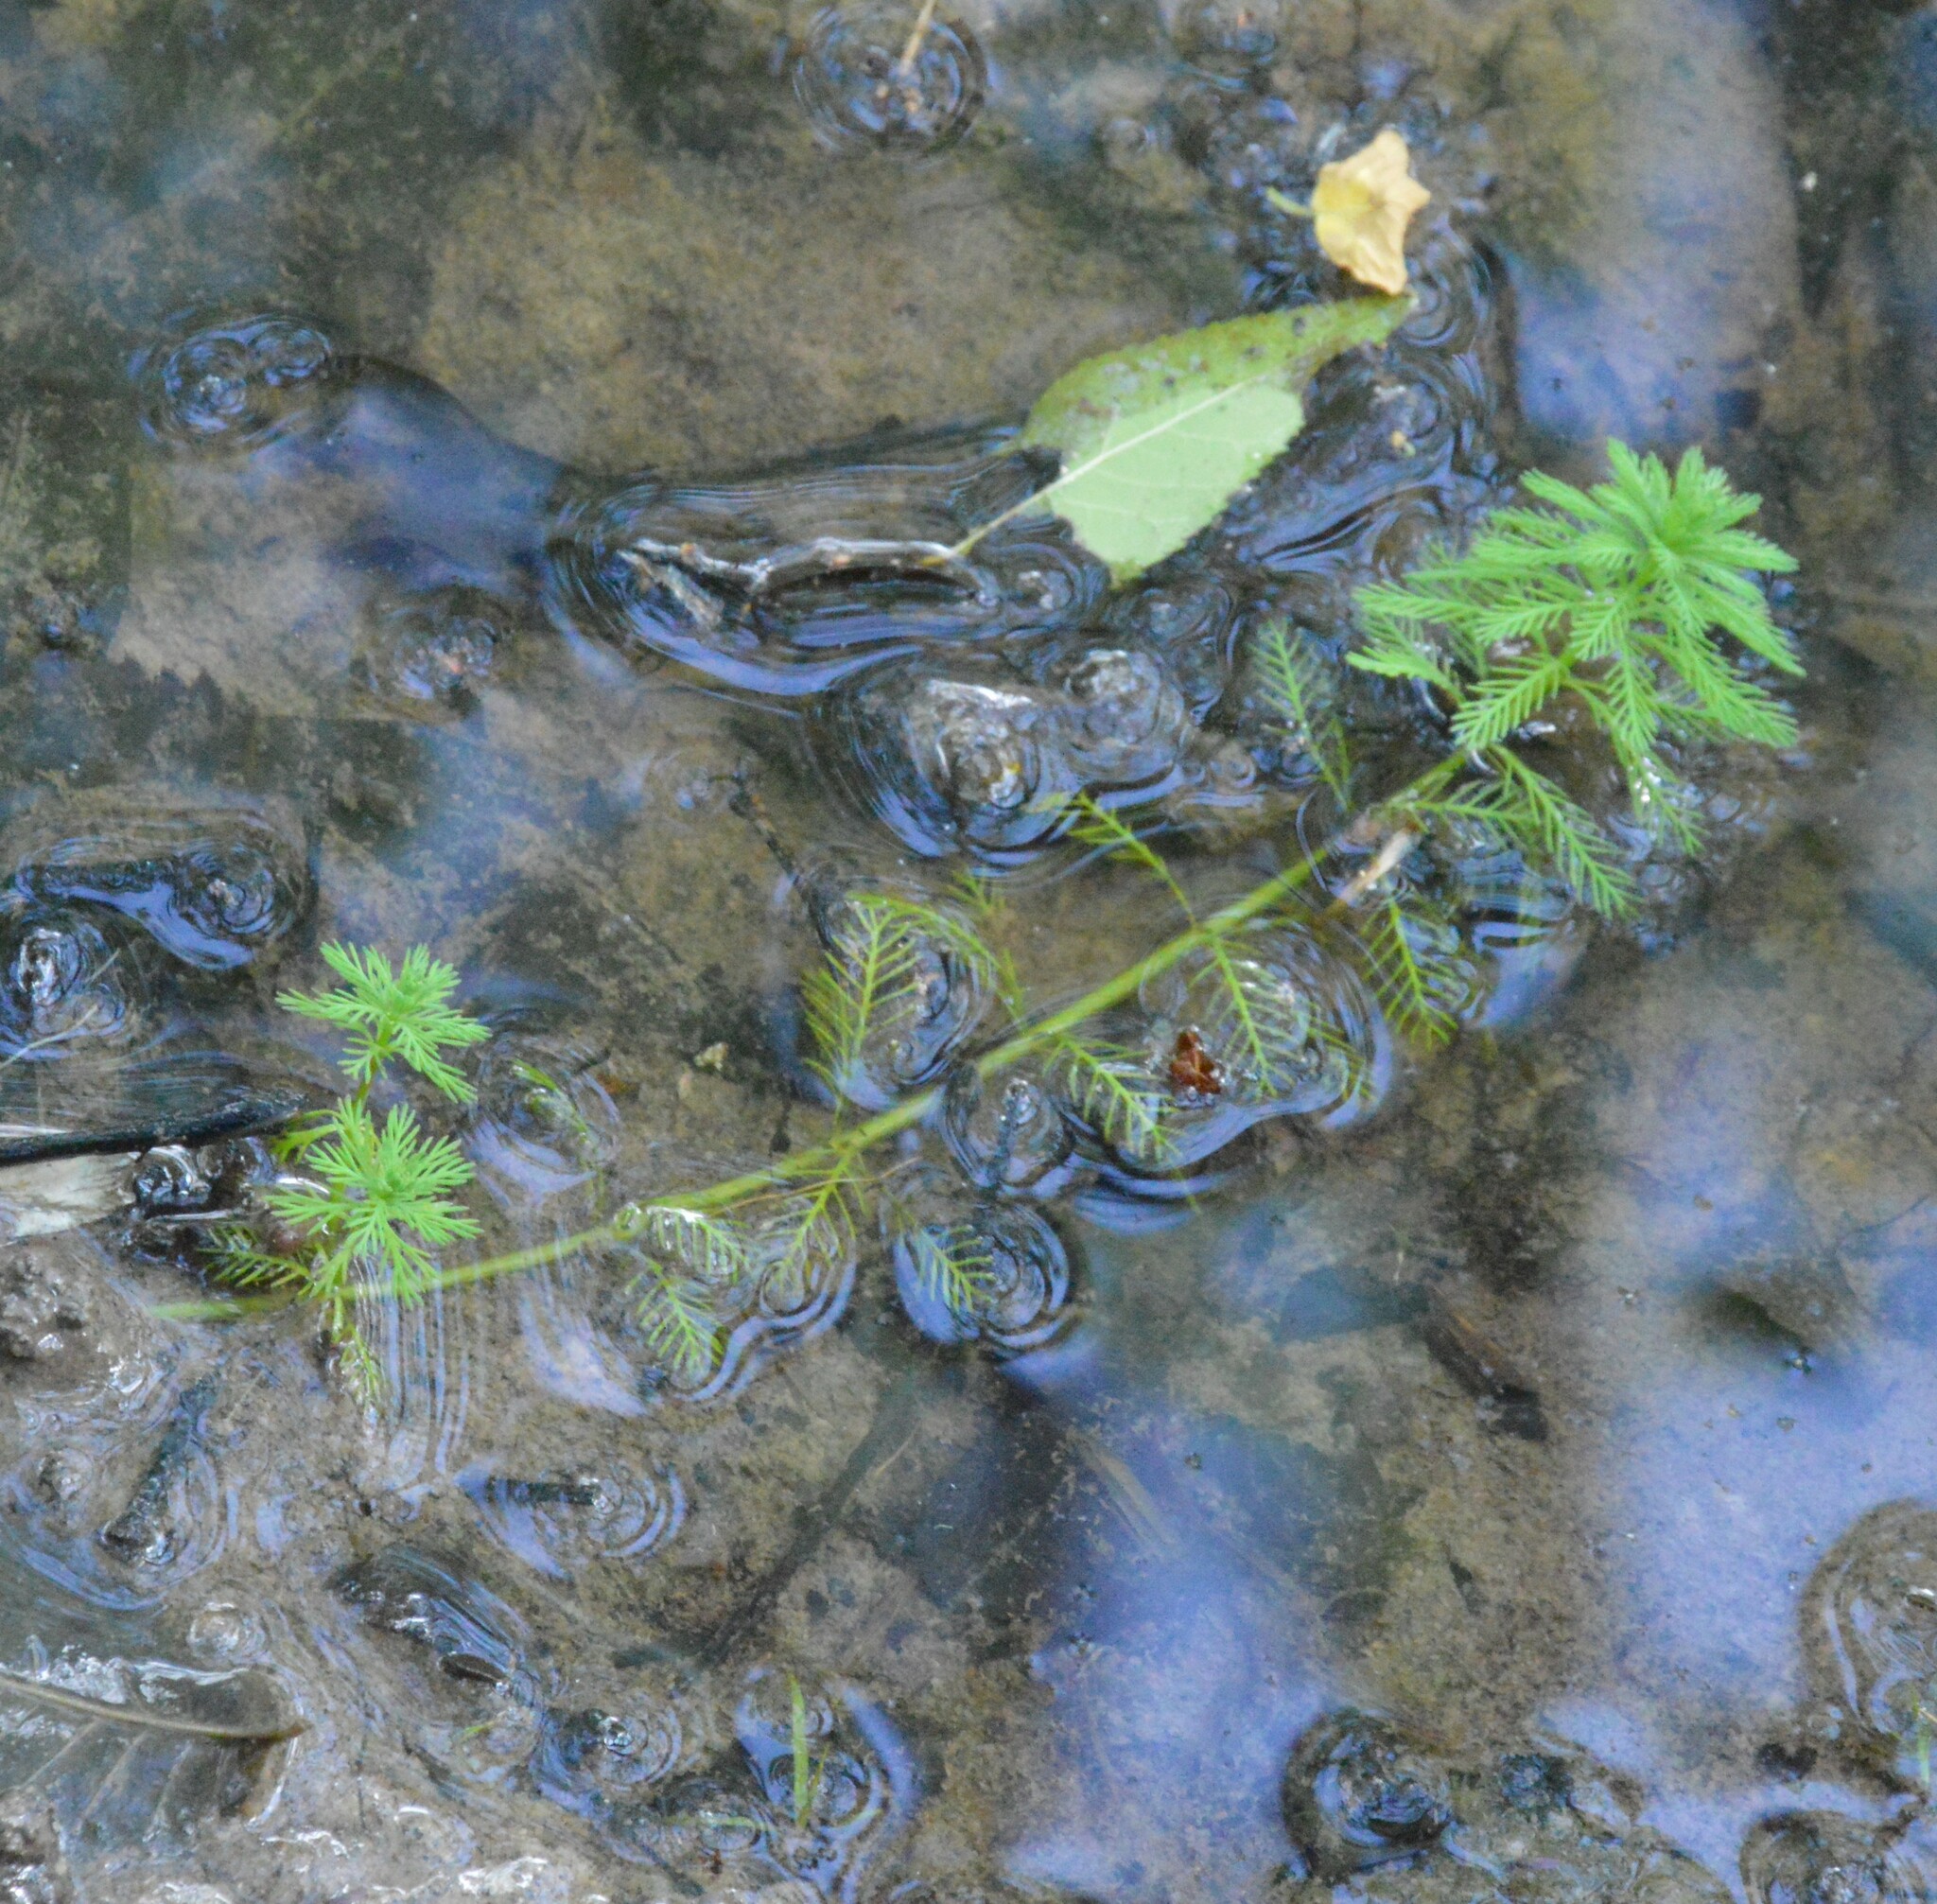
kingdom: Plantae
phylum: Tracheophyta
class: Magnoliopsida
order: Saxifragales
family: Haloragaceae
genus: Myriophyllum
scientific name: Myriophyllum aquaticum
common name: Parrot's feather
